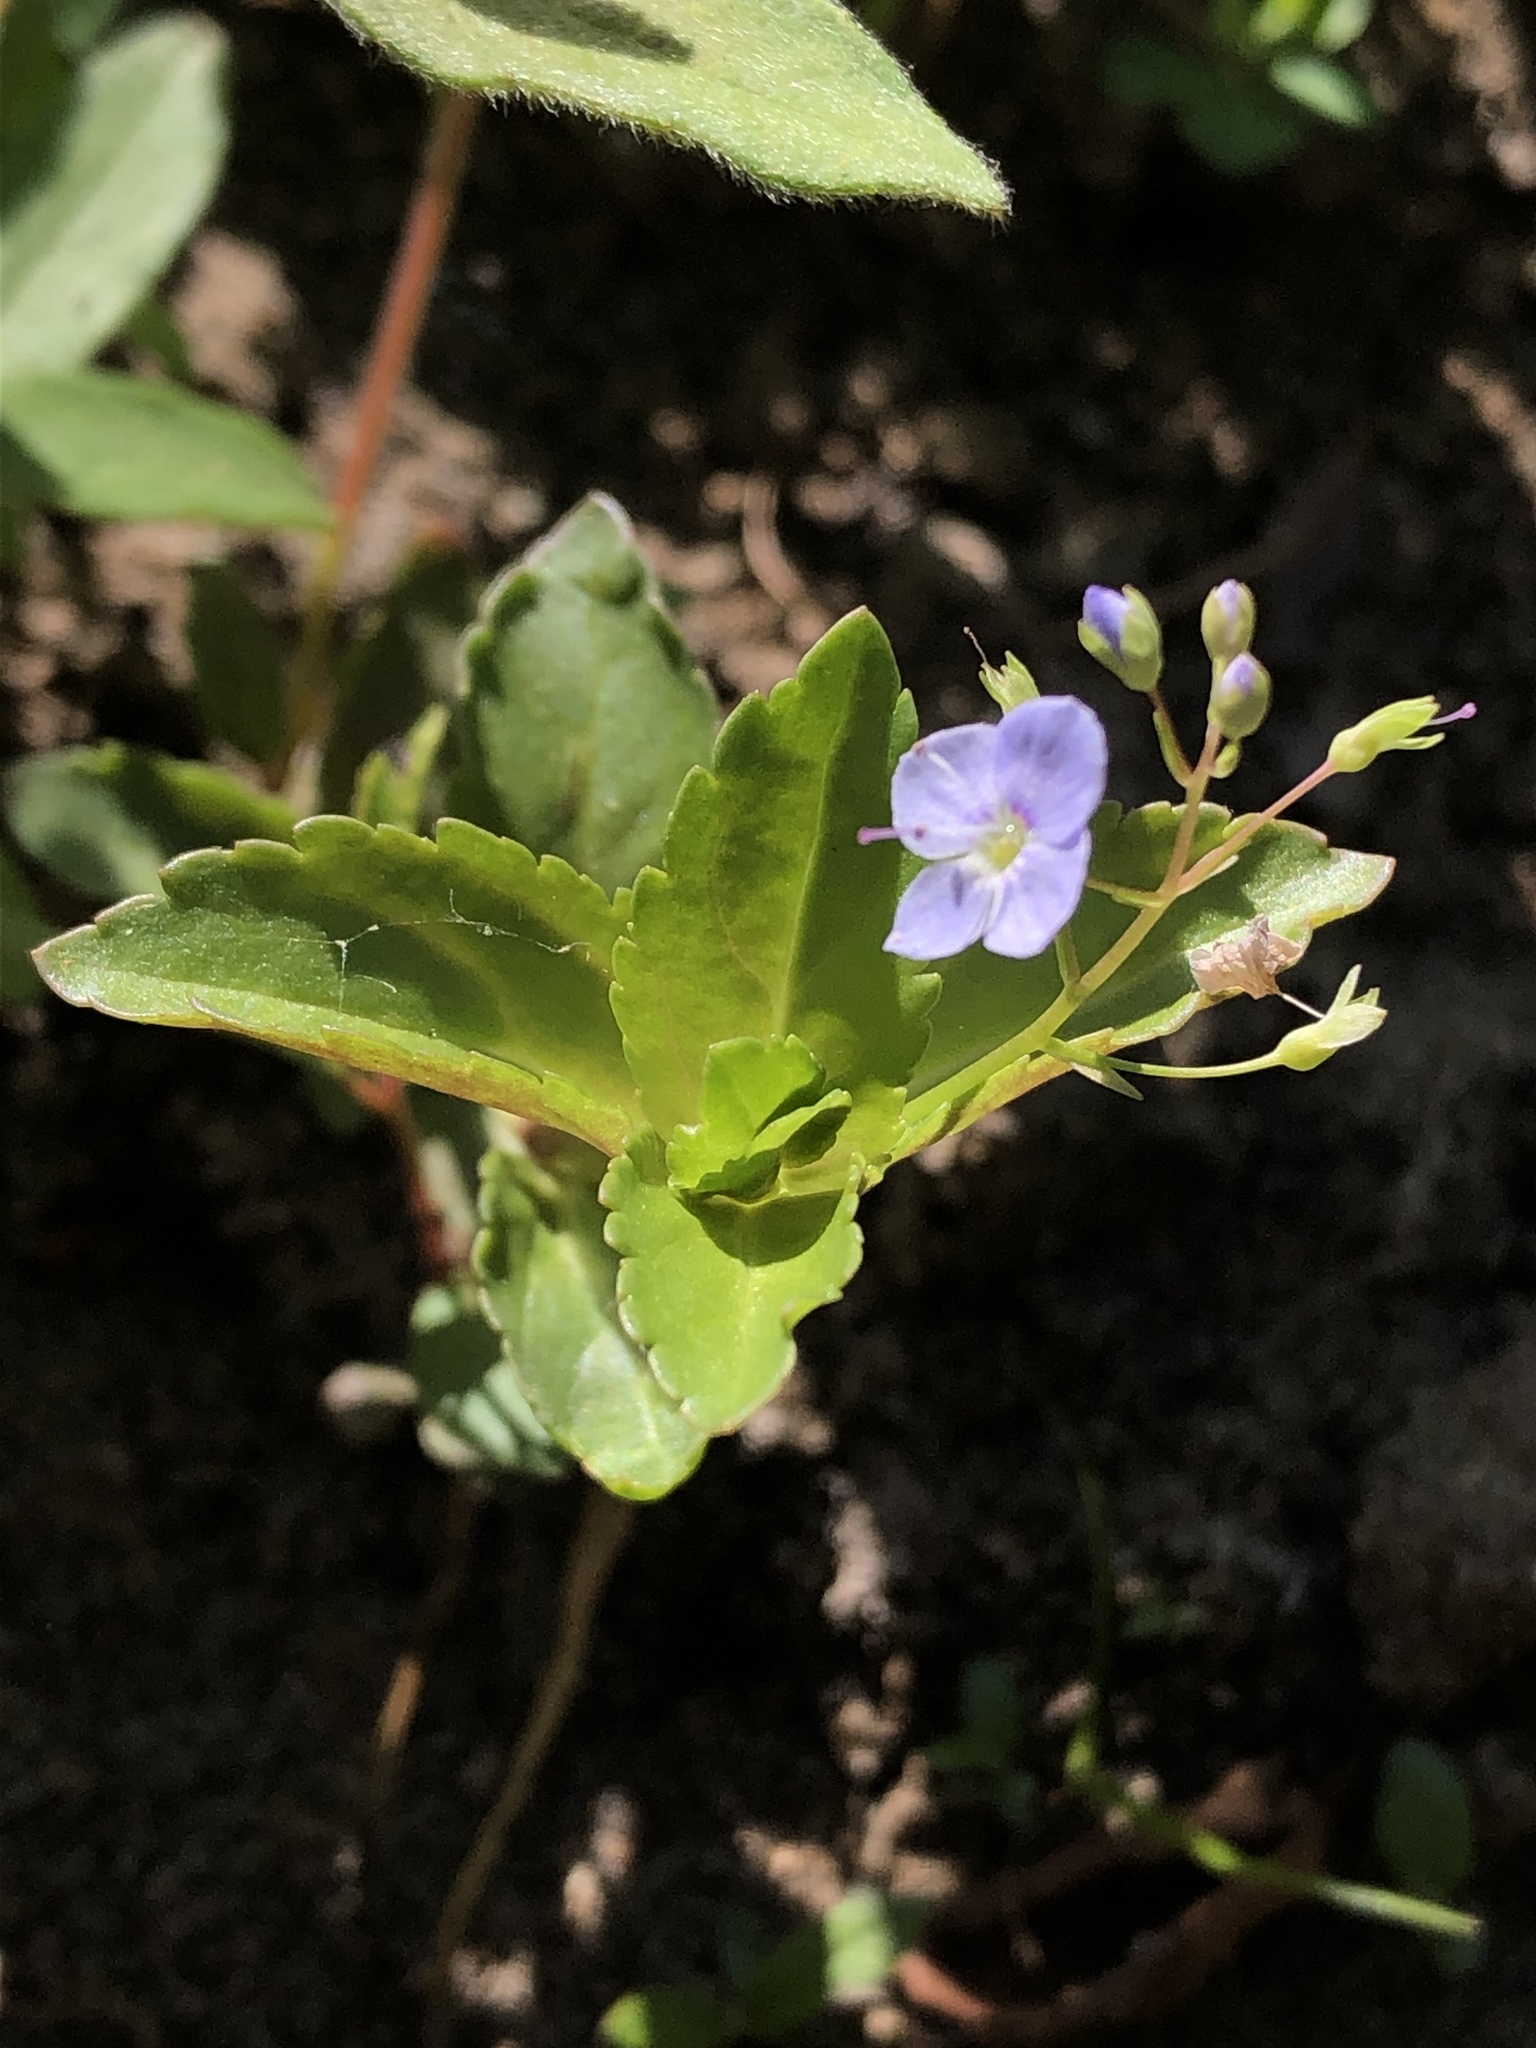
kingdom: Plantae
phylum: Tracheophyta
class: Magnoliopsida
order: Lamiales
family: Plantaginaceae
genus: Veronica
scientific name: Veronica americana
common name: American brooklime
